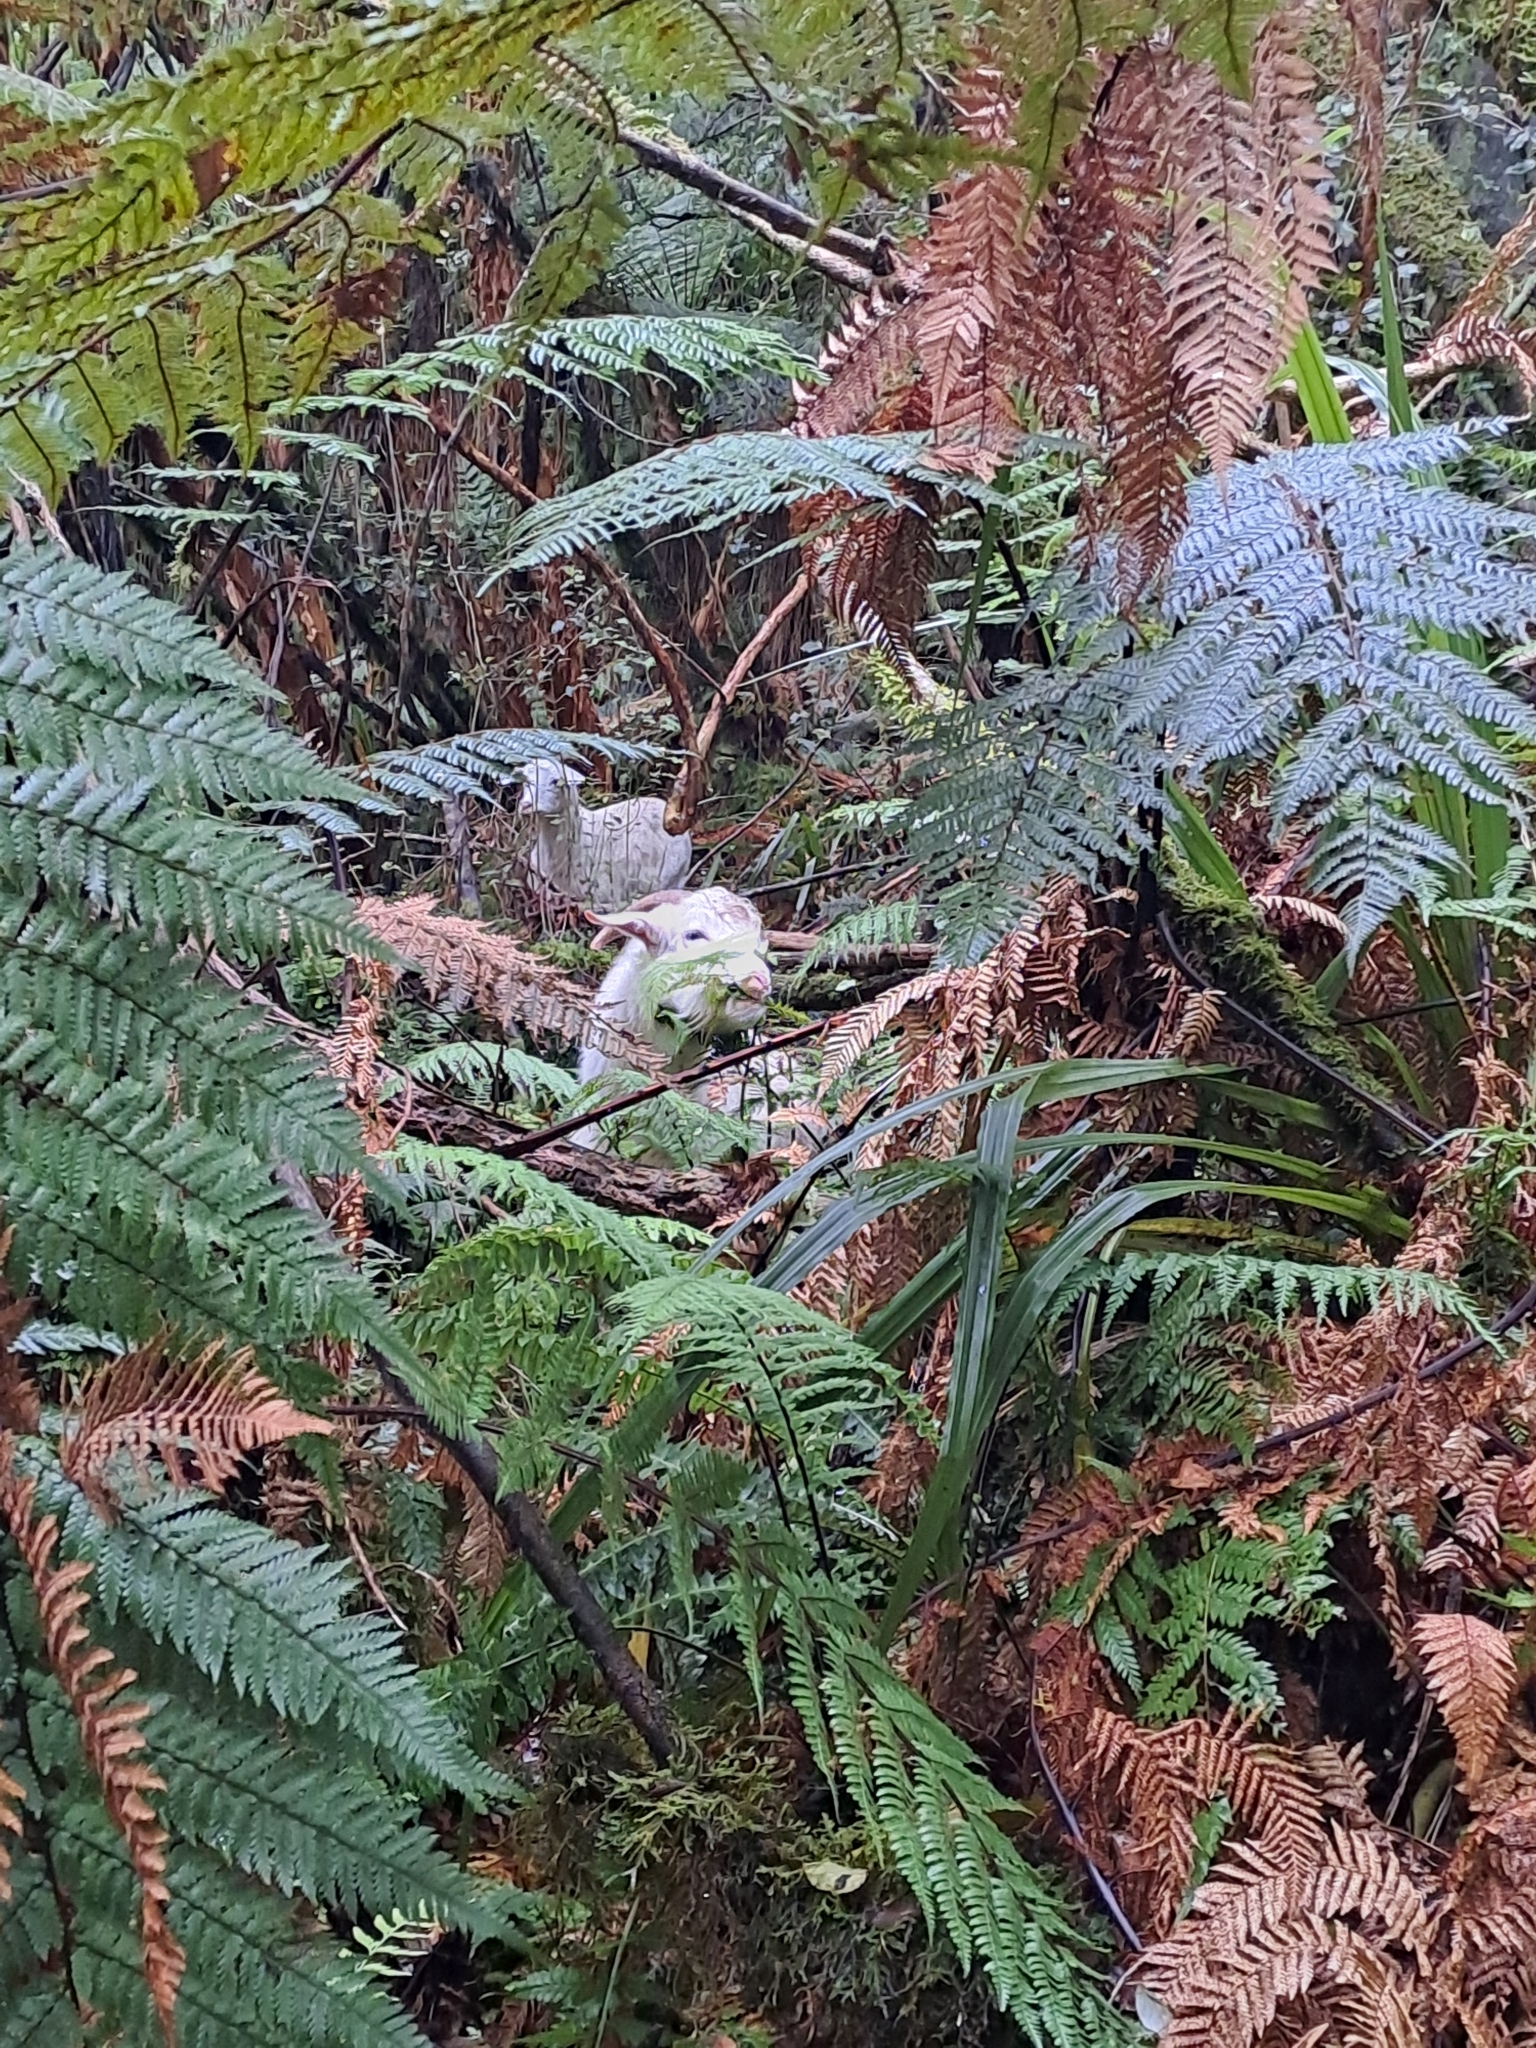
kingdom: Animalia
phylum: Chordata
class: Mammalia
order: Artiodactyla
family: Bovidae
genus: Capra
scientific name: Capra hircus
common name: Domestic goat
